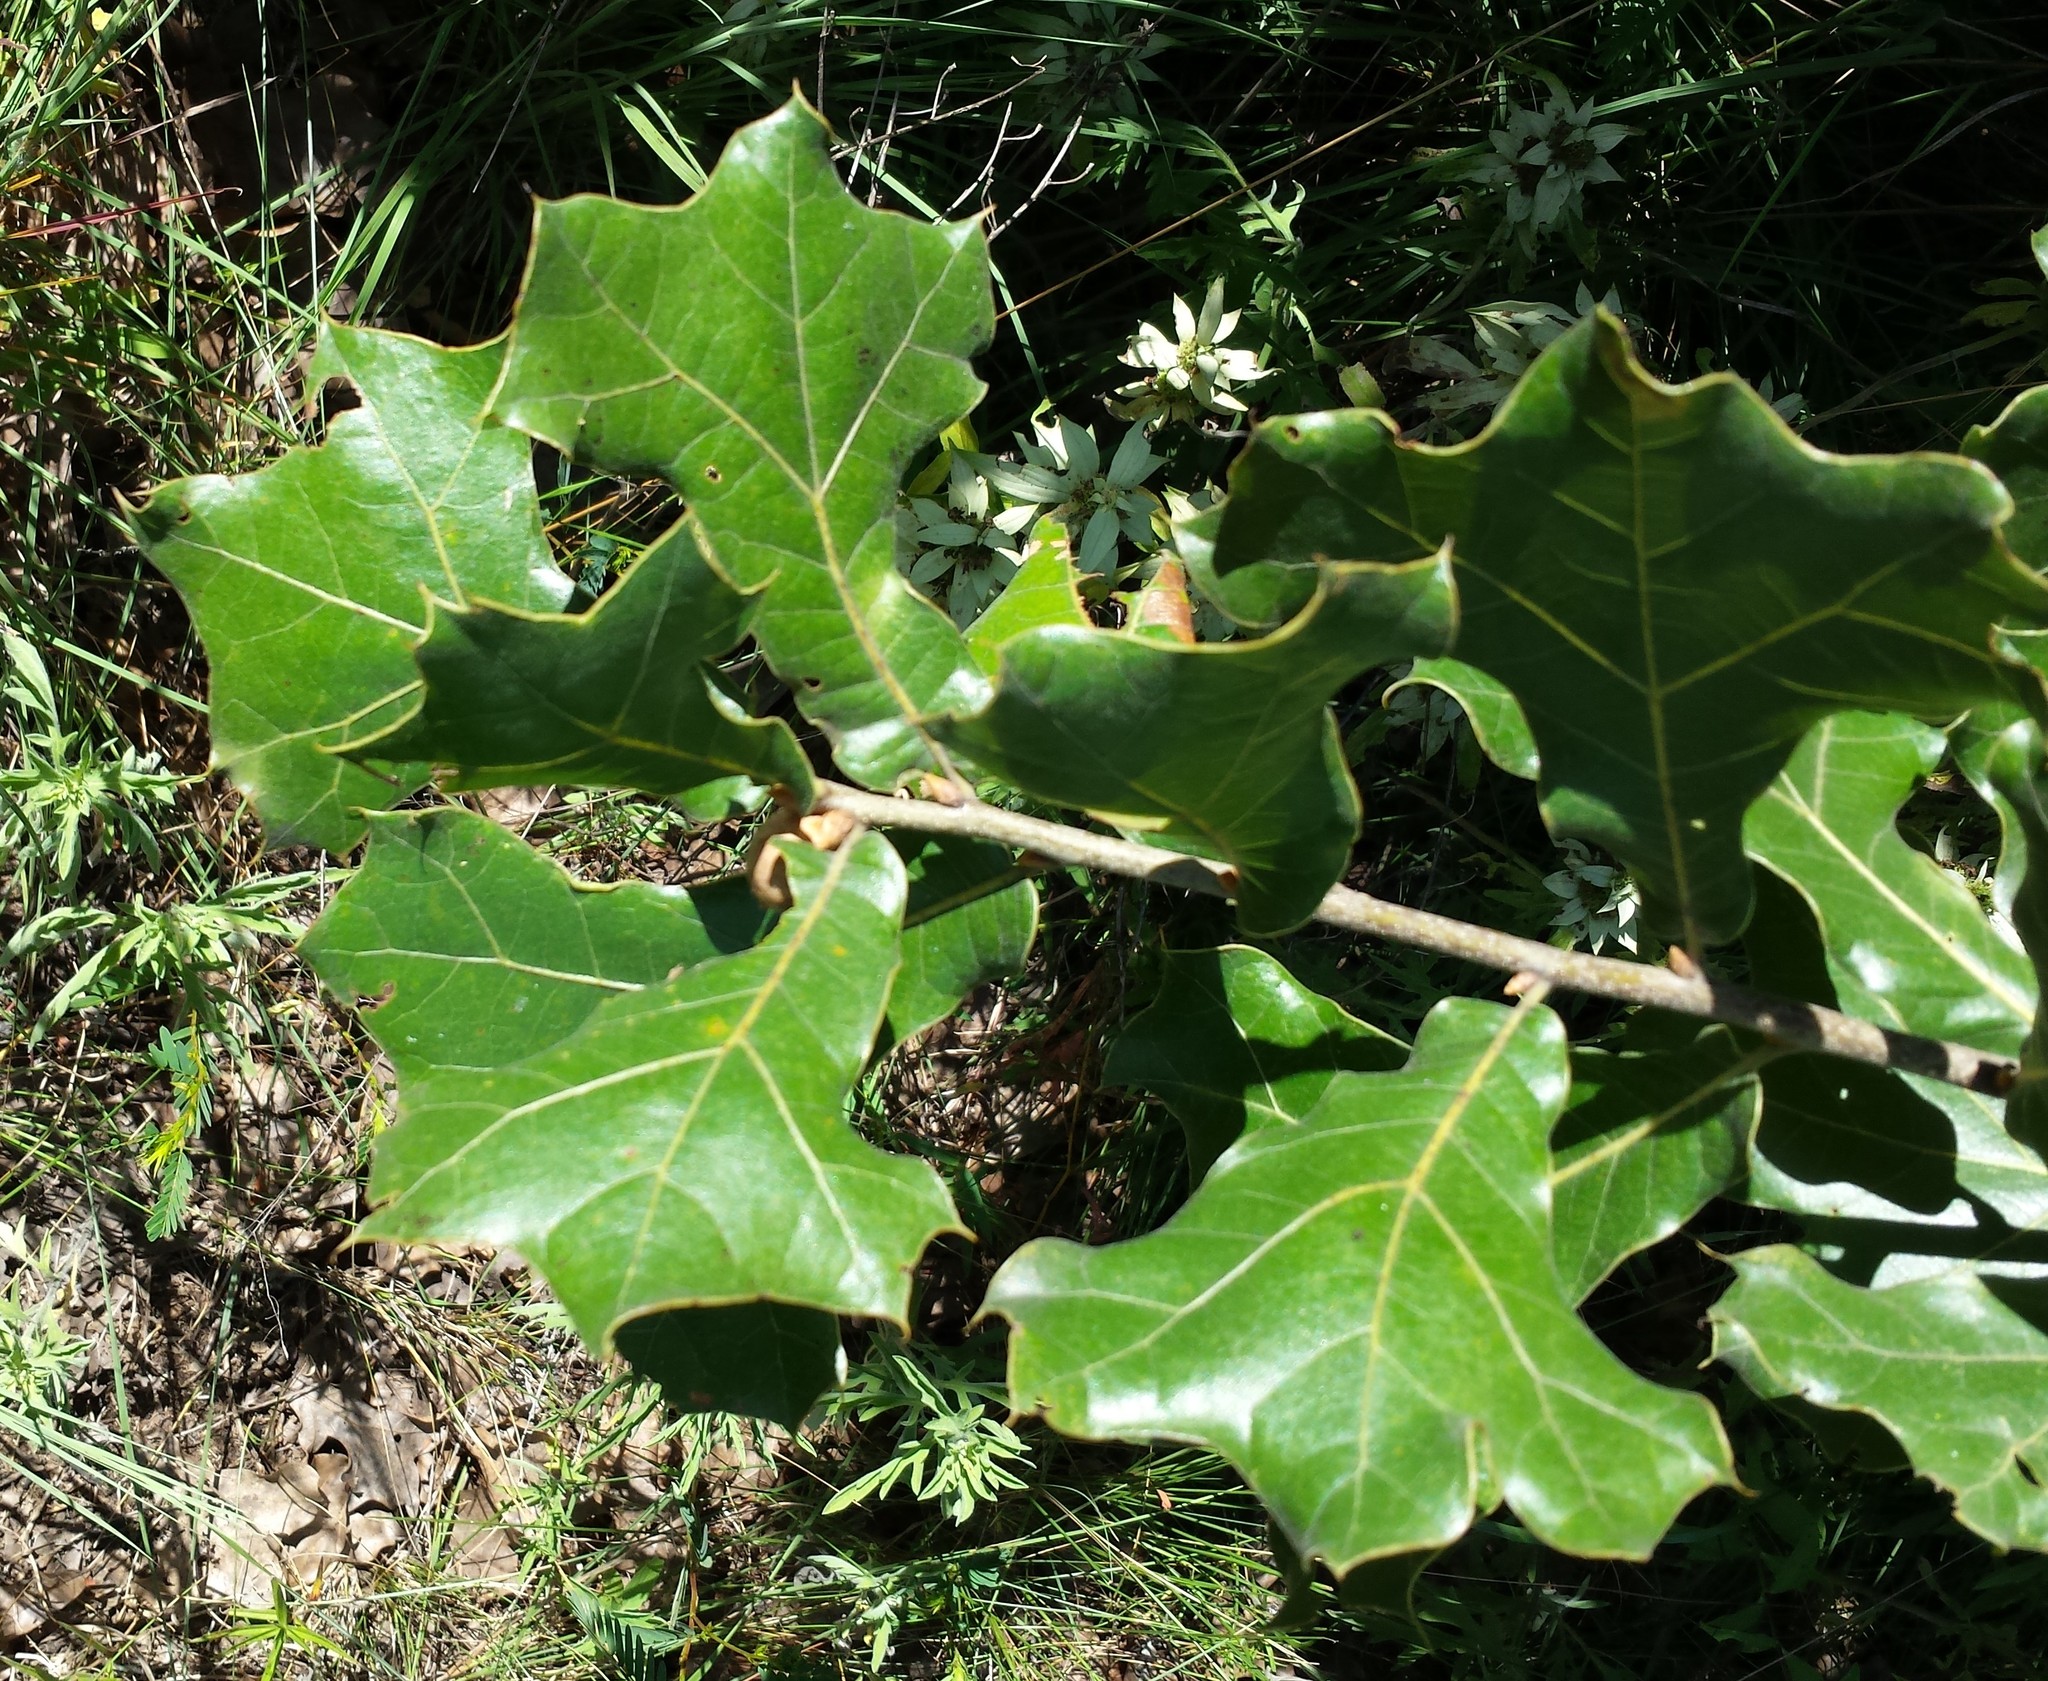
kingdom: Plantae
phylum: Tracheophyta
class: Magnoliopsida
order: Fagales
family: Fagaceae
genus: Quercus
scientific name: Quercus marilandica
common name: Blackjack oak
